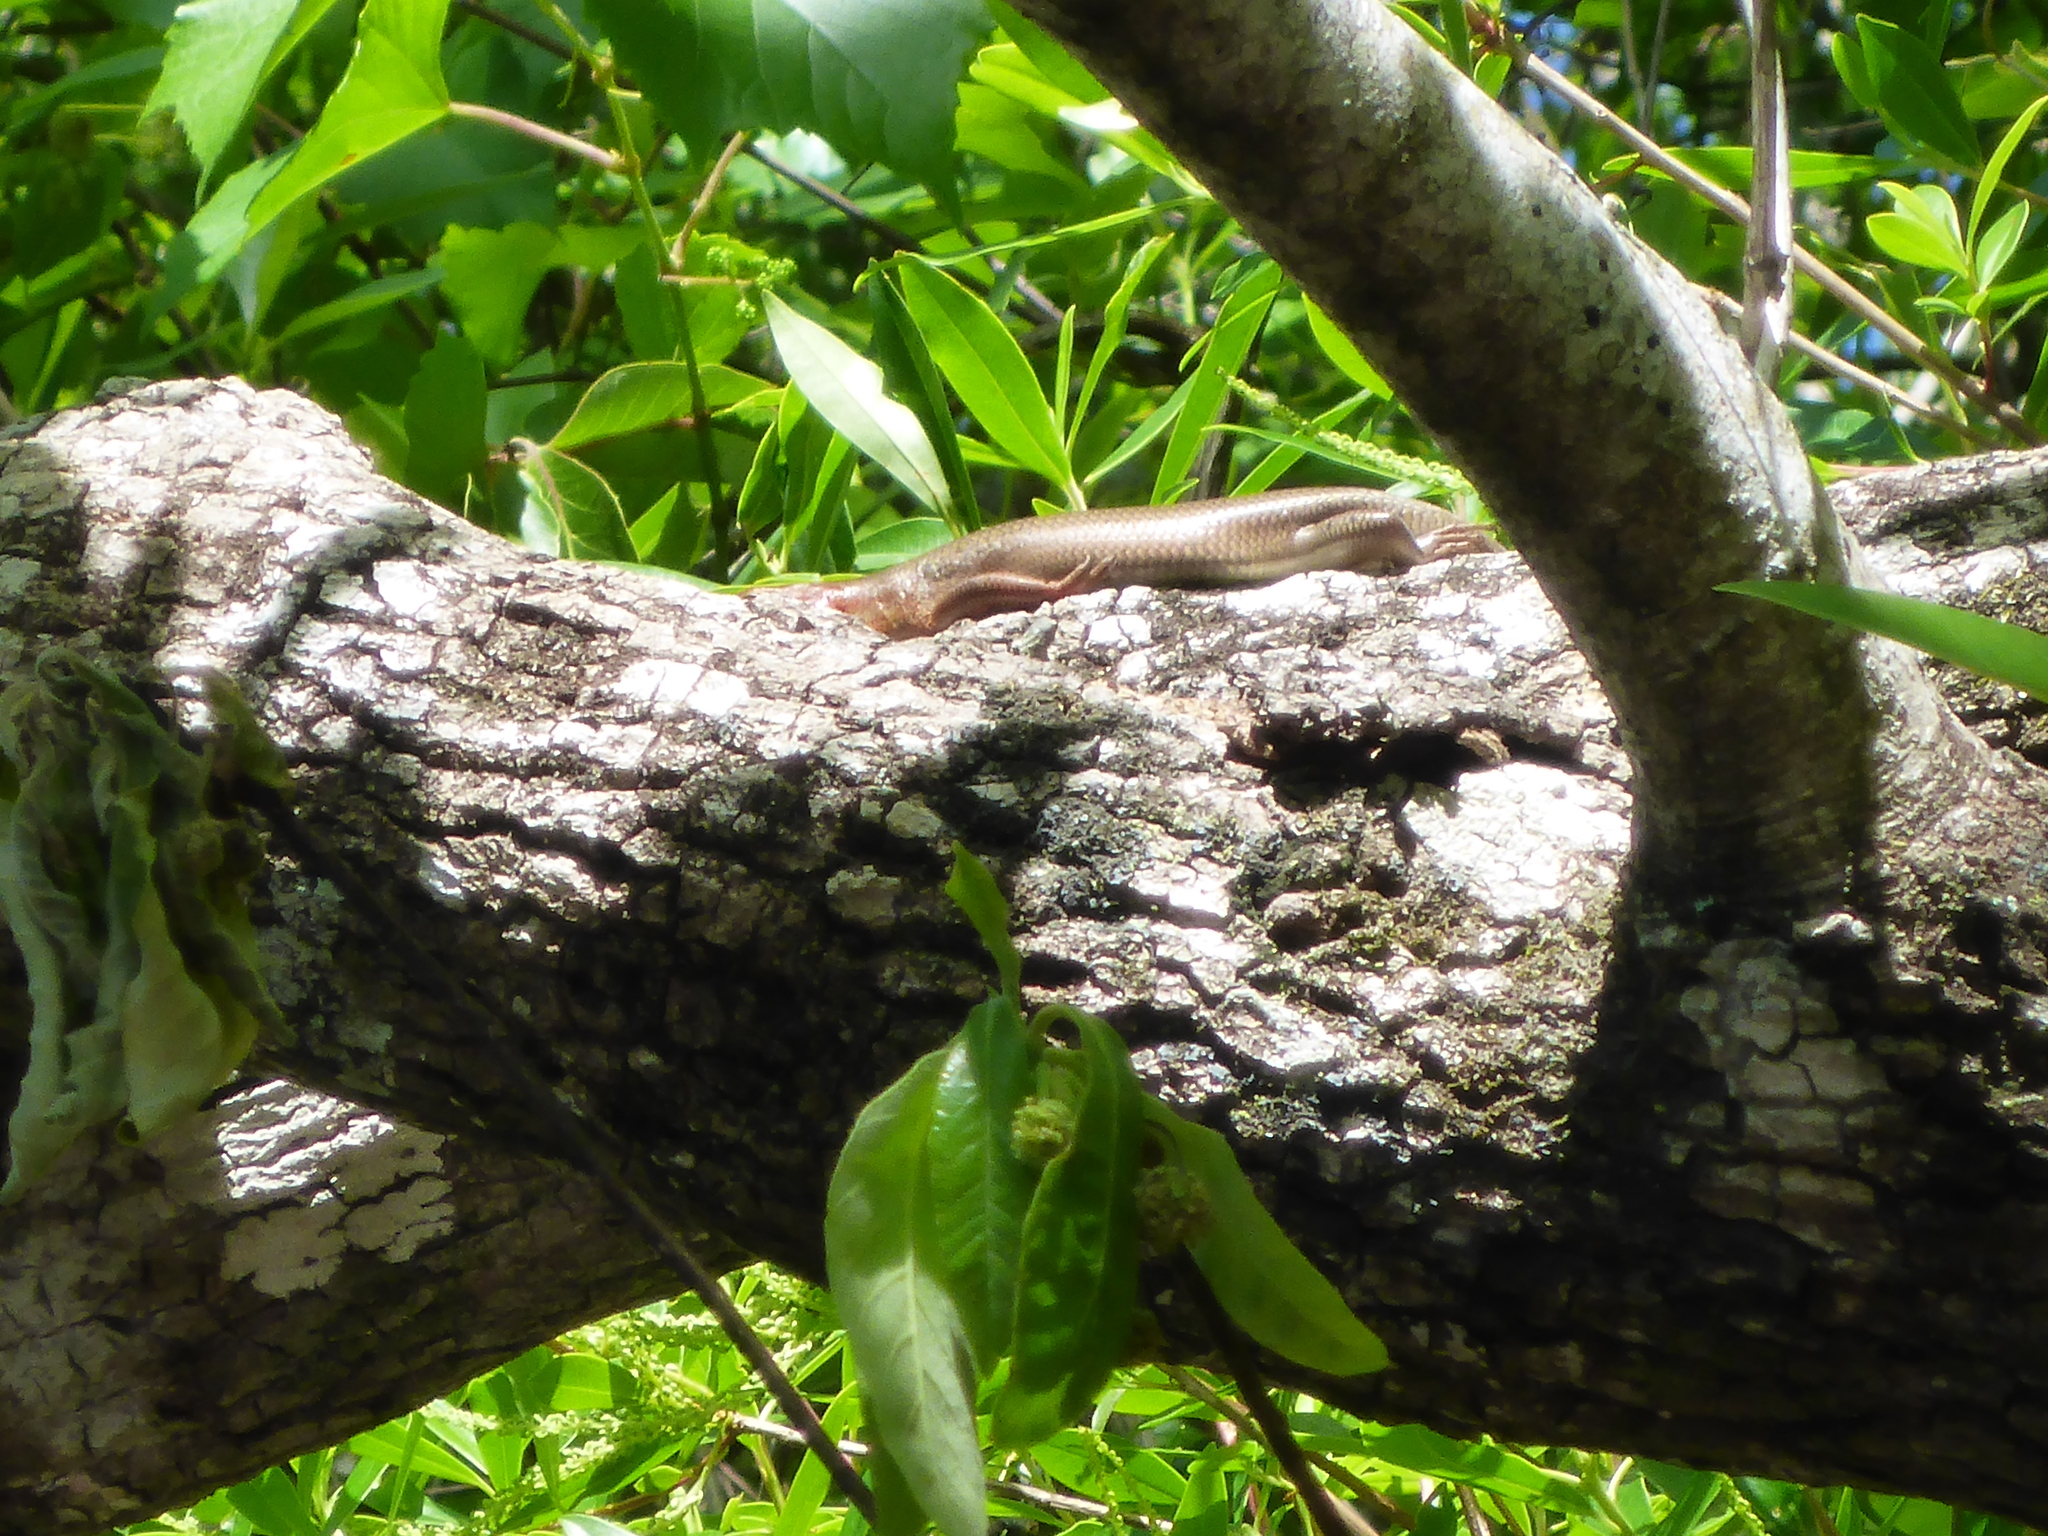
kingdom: Animalia
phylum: Chordata
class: Squamata
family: Scincidae
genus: Plestiodon
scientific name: Plestiodon laticeps
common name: Broadhead skink
